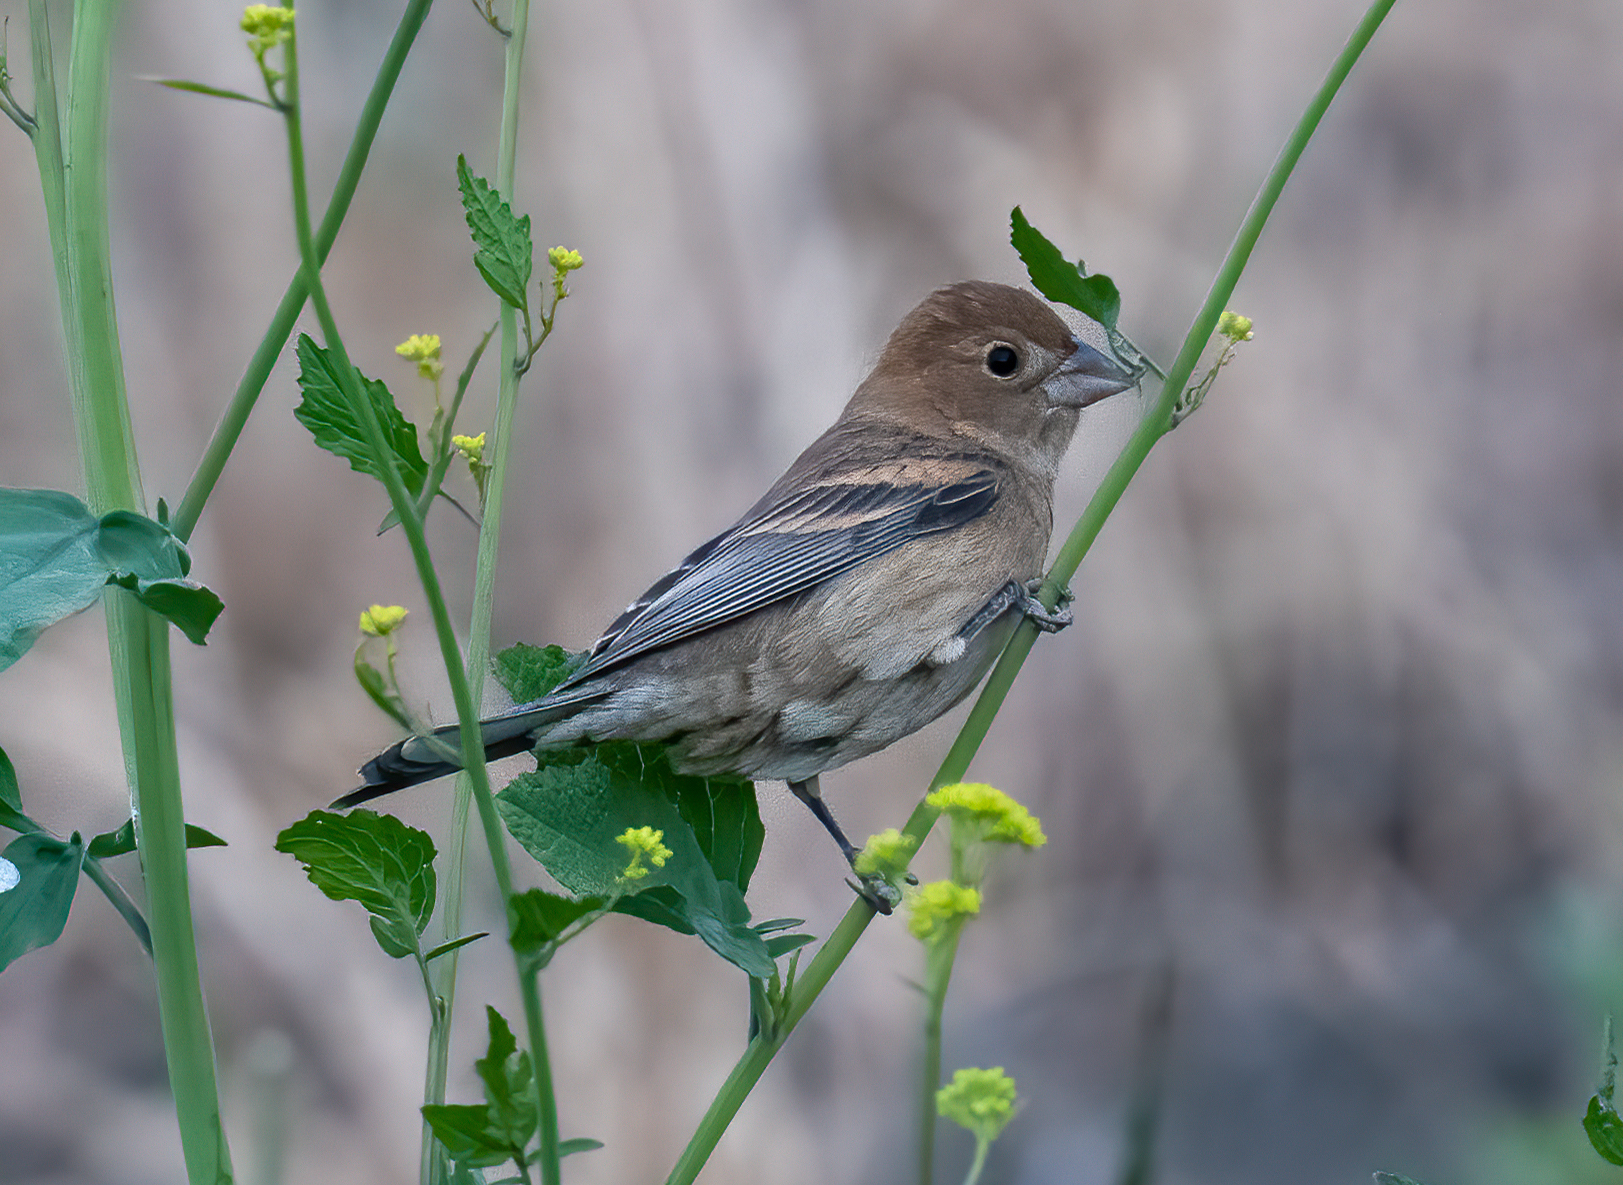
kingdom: Animalia
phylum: Chordata
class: Aves
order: Passeriformes
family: Cardinalidae
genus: Passerina
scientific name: Passerina caerulea
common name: Blue grosbeak
